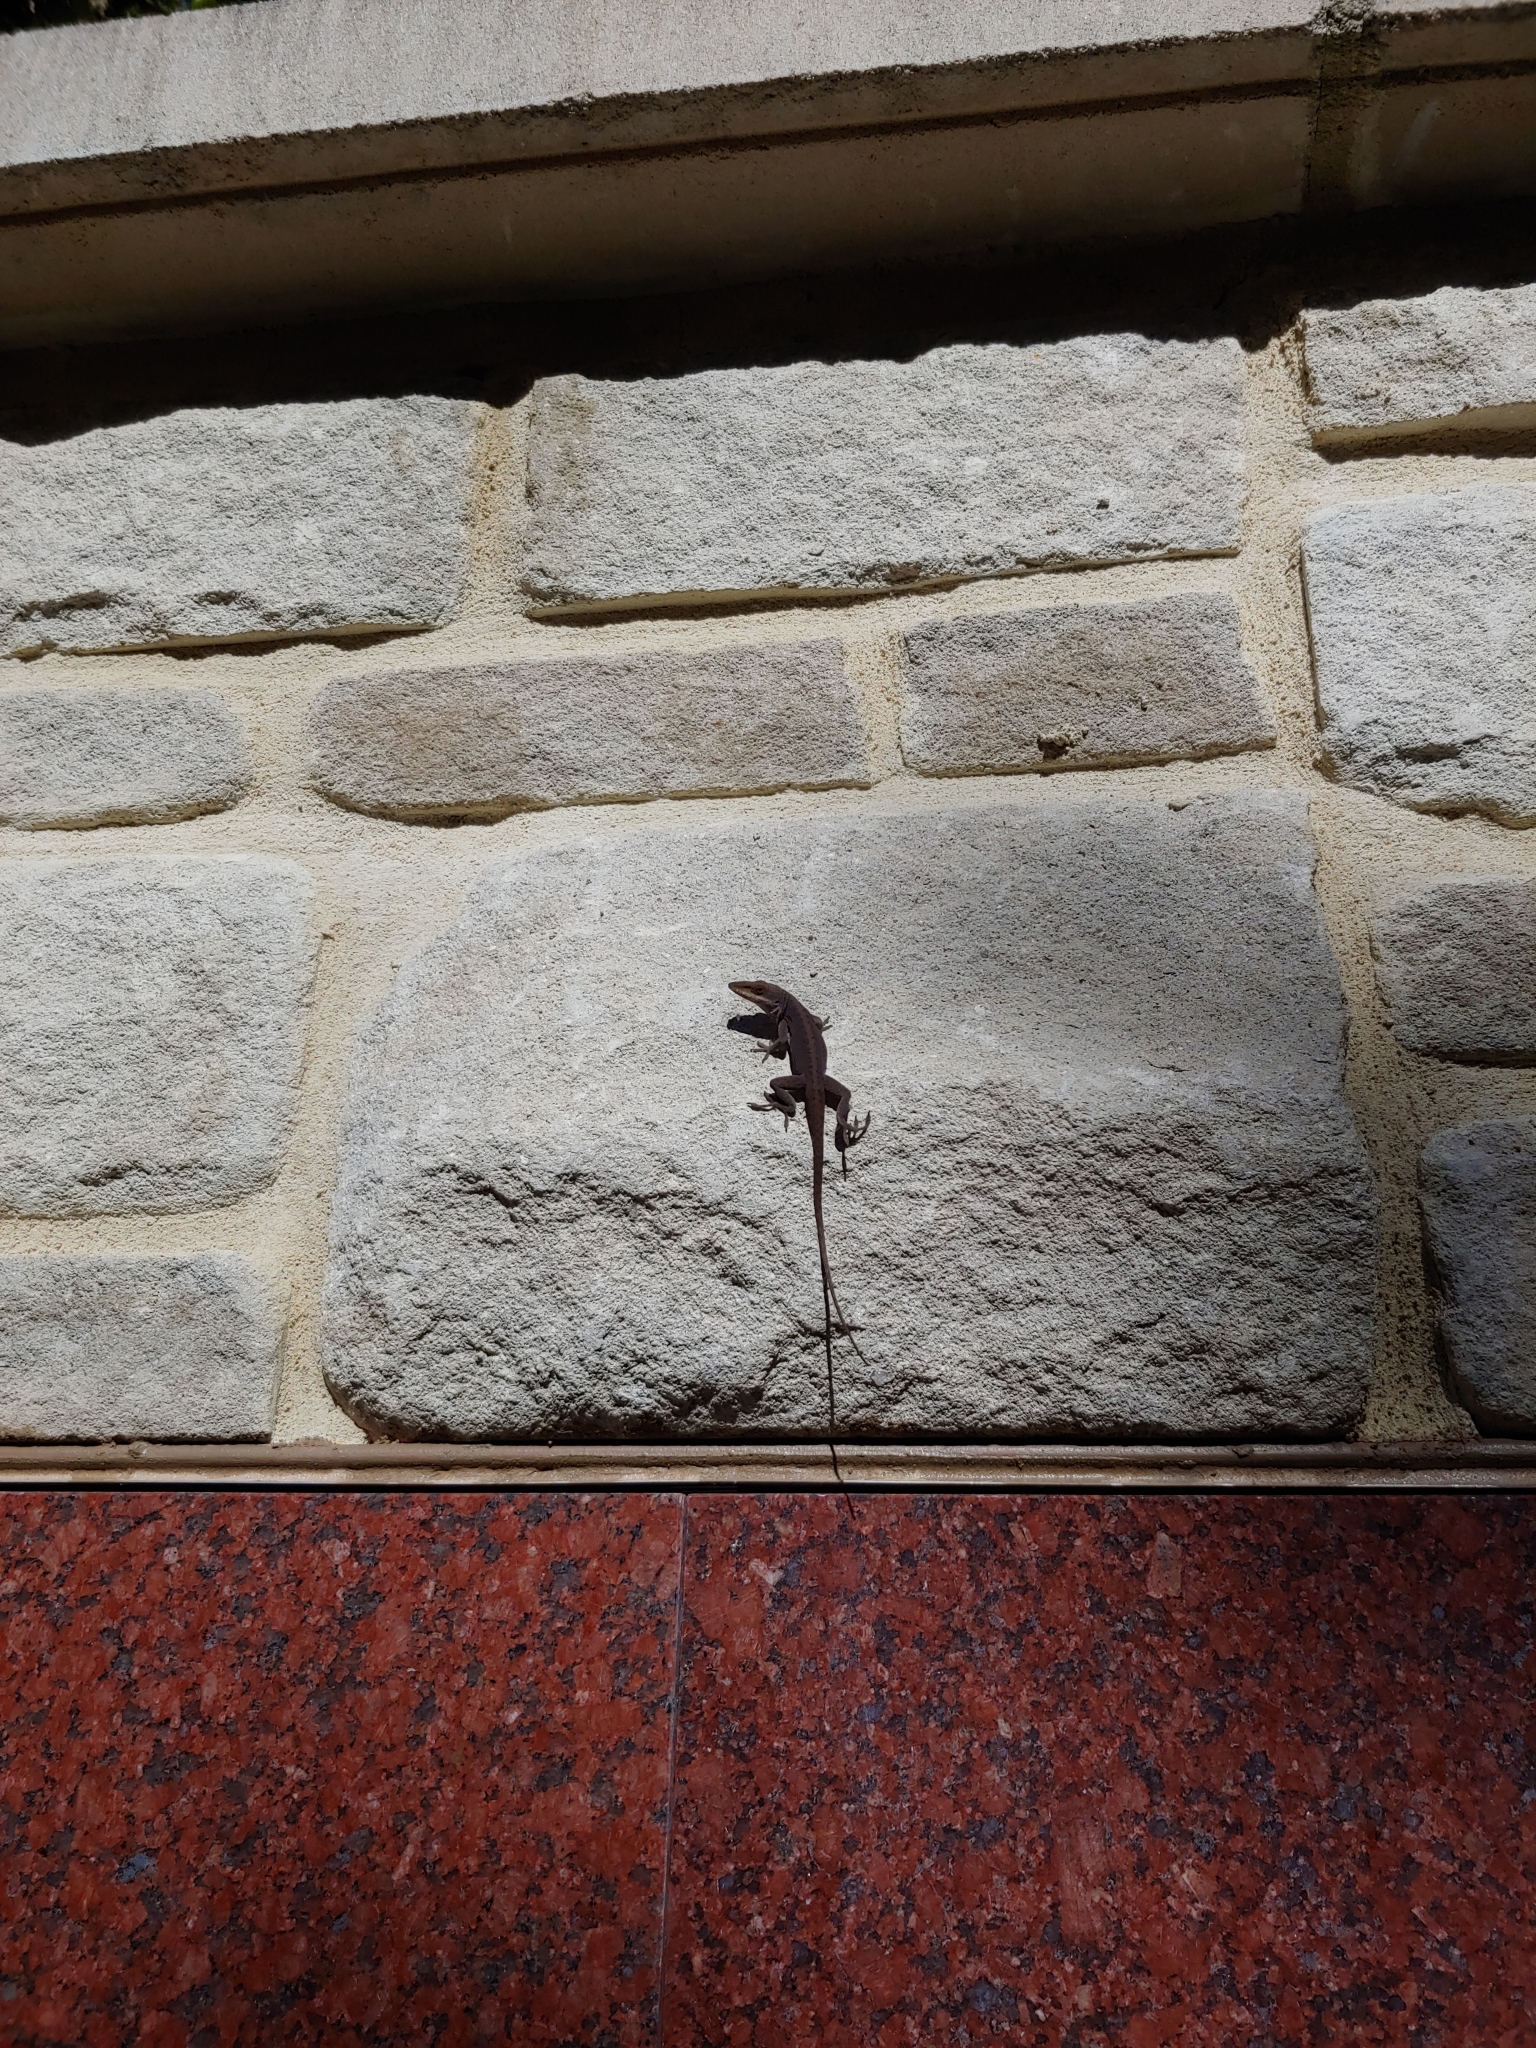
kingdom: Animalia
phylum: Chordata
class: Squamata
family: Dactyloidae
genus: Anolis
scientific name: Anolis carolinensis
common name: Green anole
